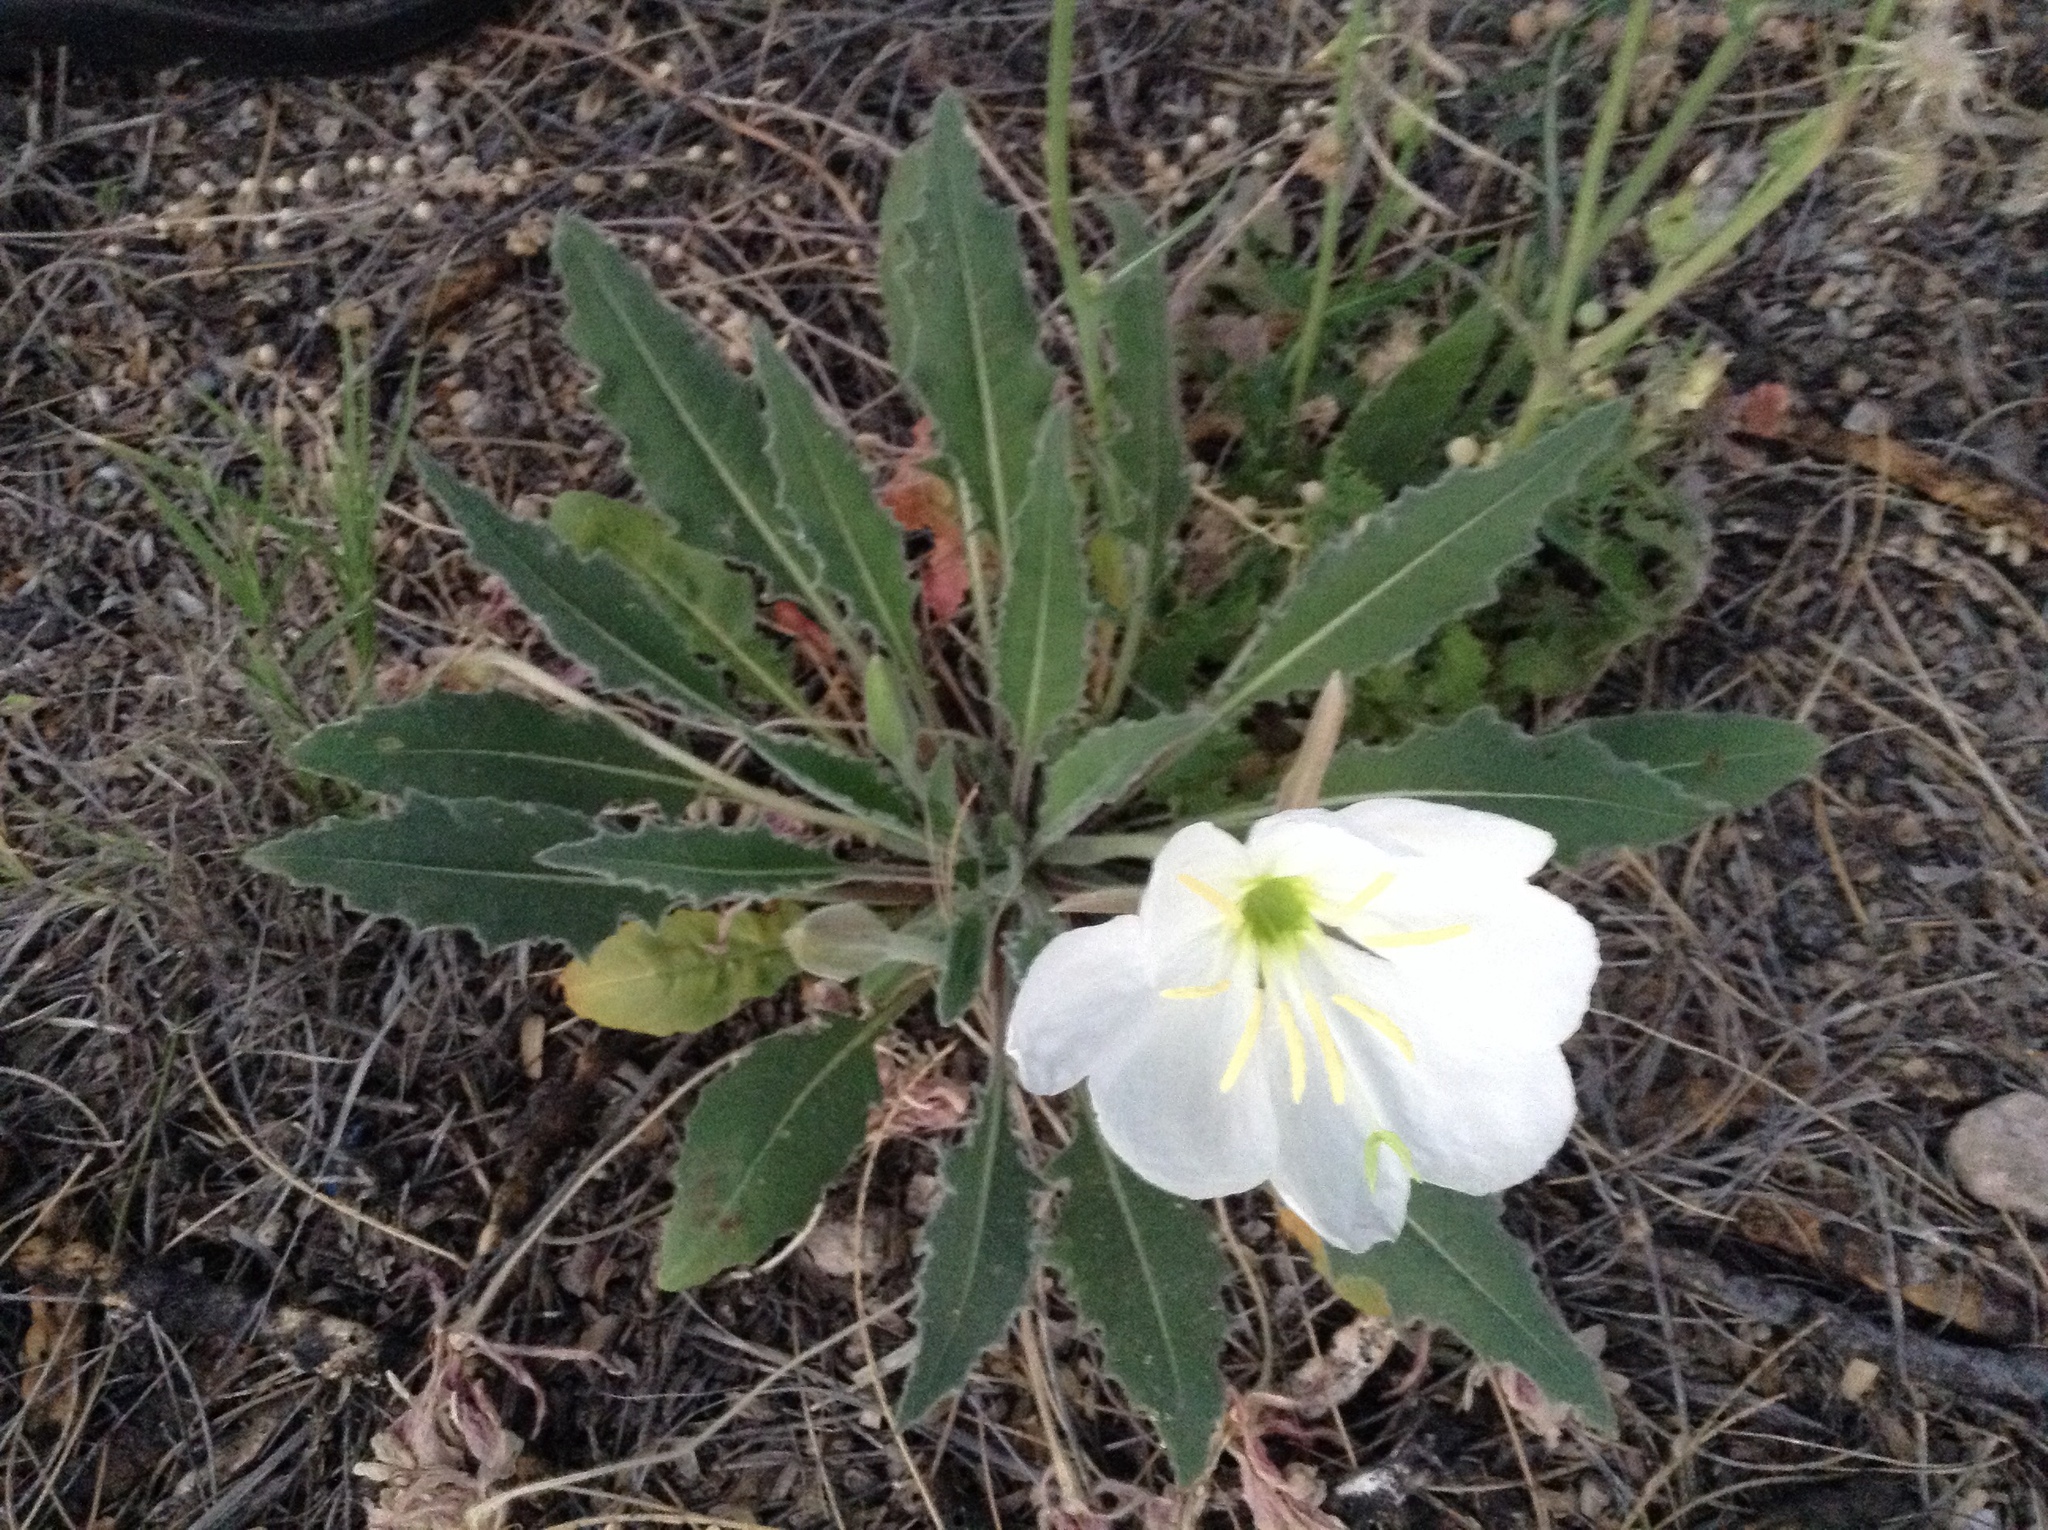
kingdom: Plantae
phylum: Tracheophyta
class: Magnoliopsida
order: Myrtales
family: Onagraceae
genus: Oenothera
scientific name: Oenothera cespitosa
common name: Tufted evening-primrose
